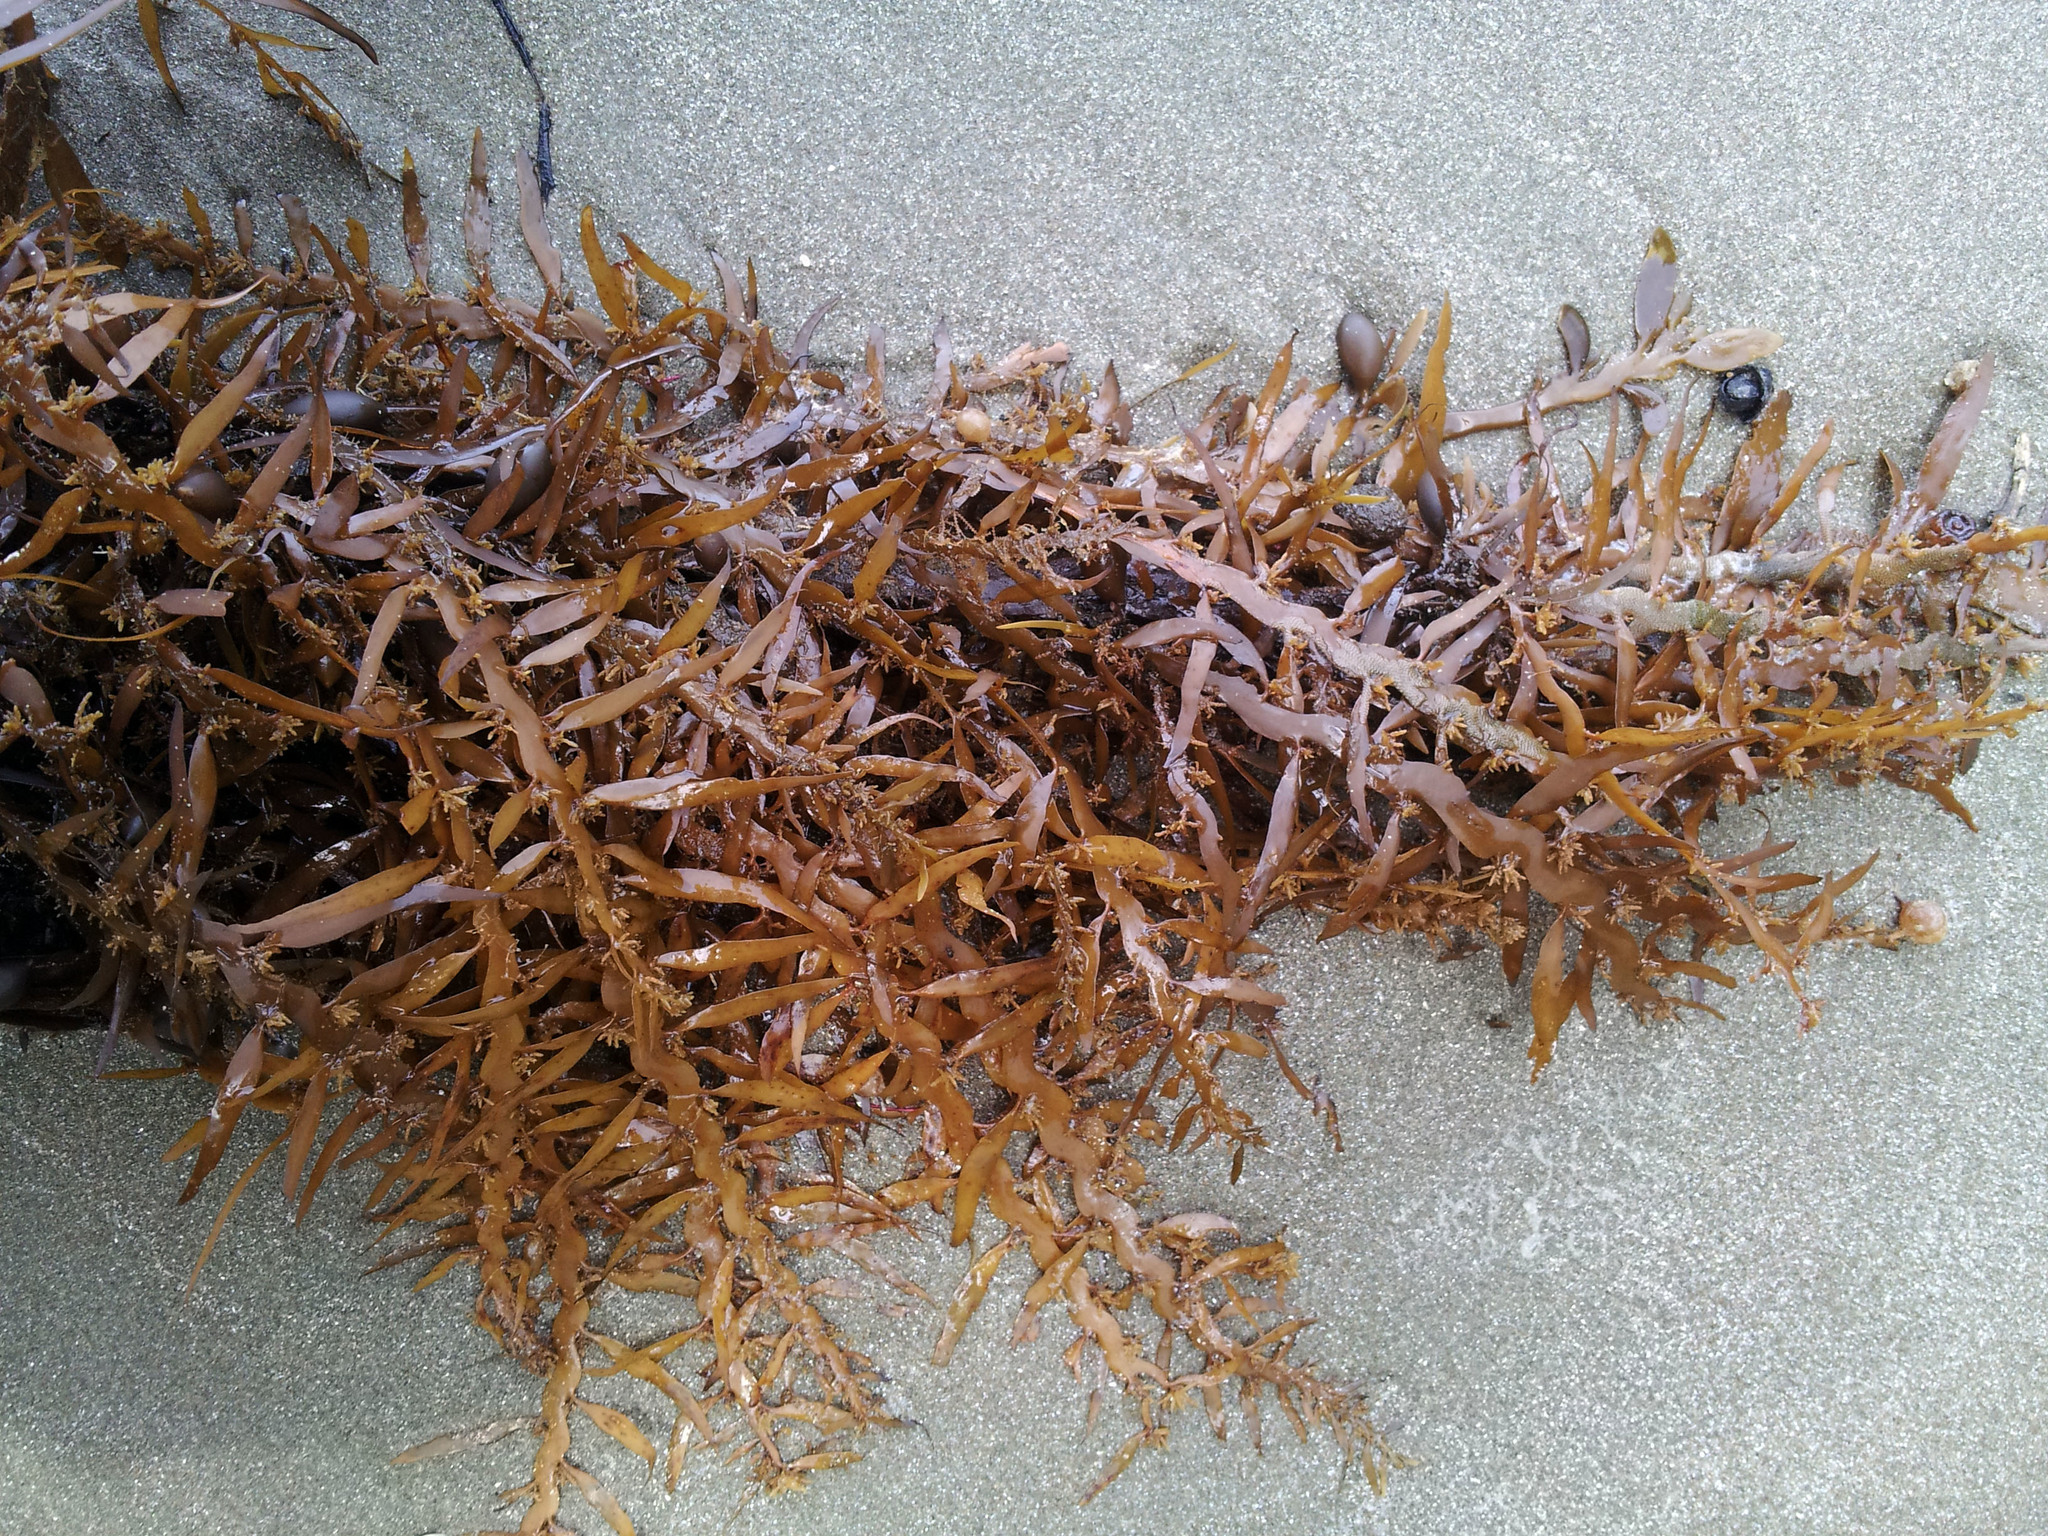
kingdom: Chromista
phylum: Ochrophyta
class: Phaeophyceae
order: Fucales
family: Sargassaceae
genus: Carpophyllum
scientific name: Carpophyllum maschalocarpum
